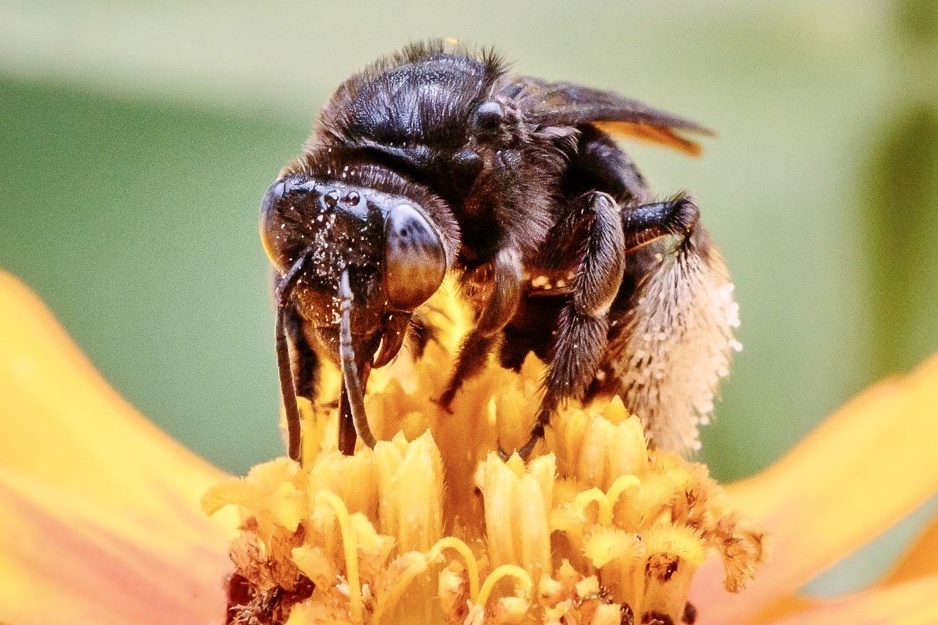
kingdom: Animalia
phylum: Arthropoda
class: Insecta
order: Hymenoptera
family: Apidae
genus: Melissodes
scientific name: Melissodes bimaculatus
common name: Two-spotted long-horned bee
